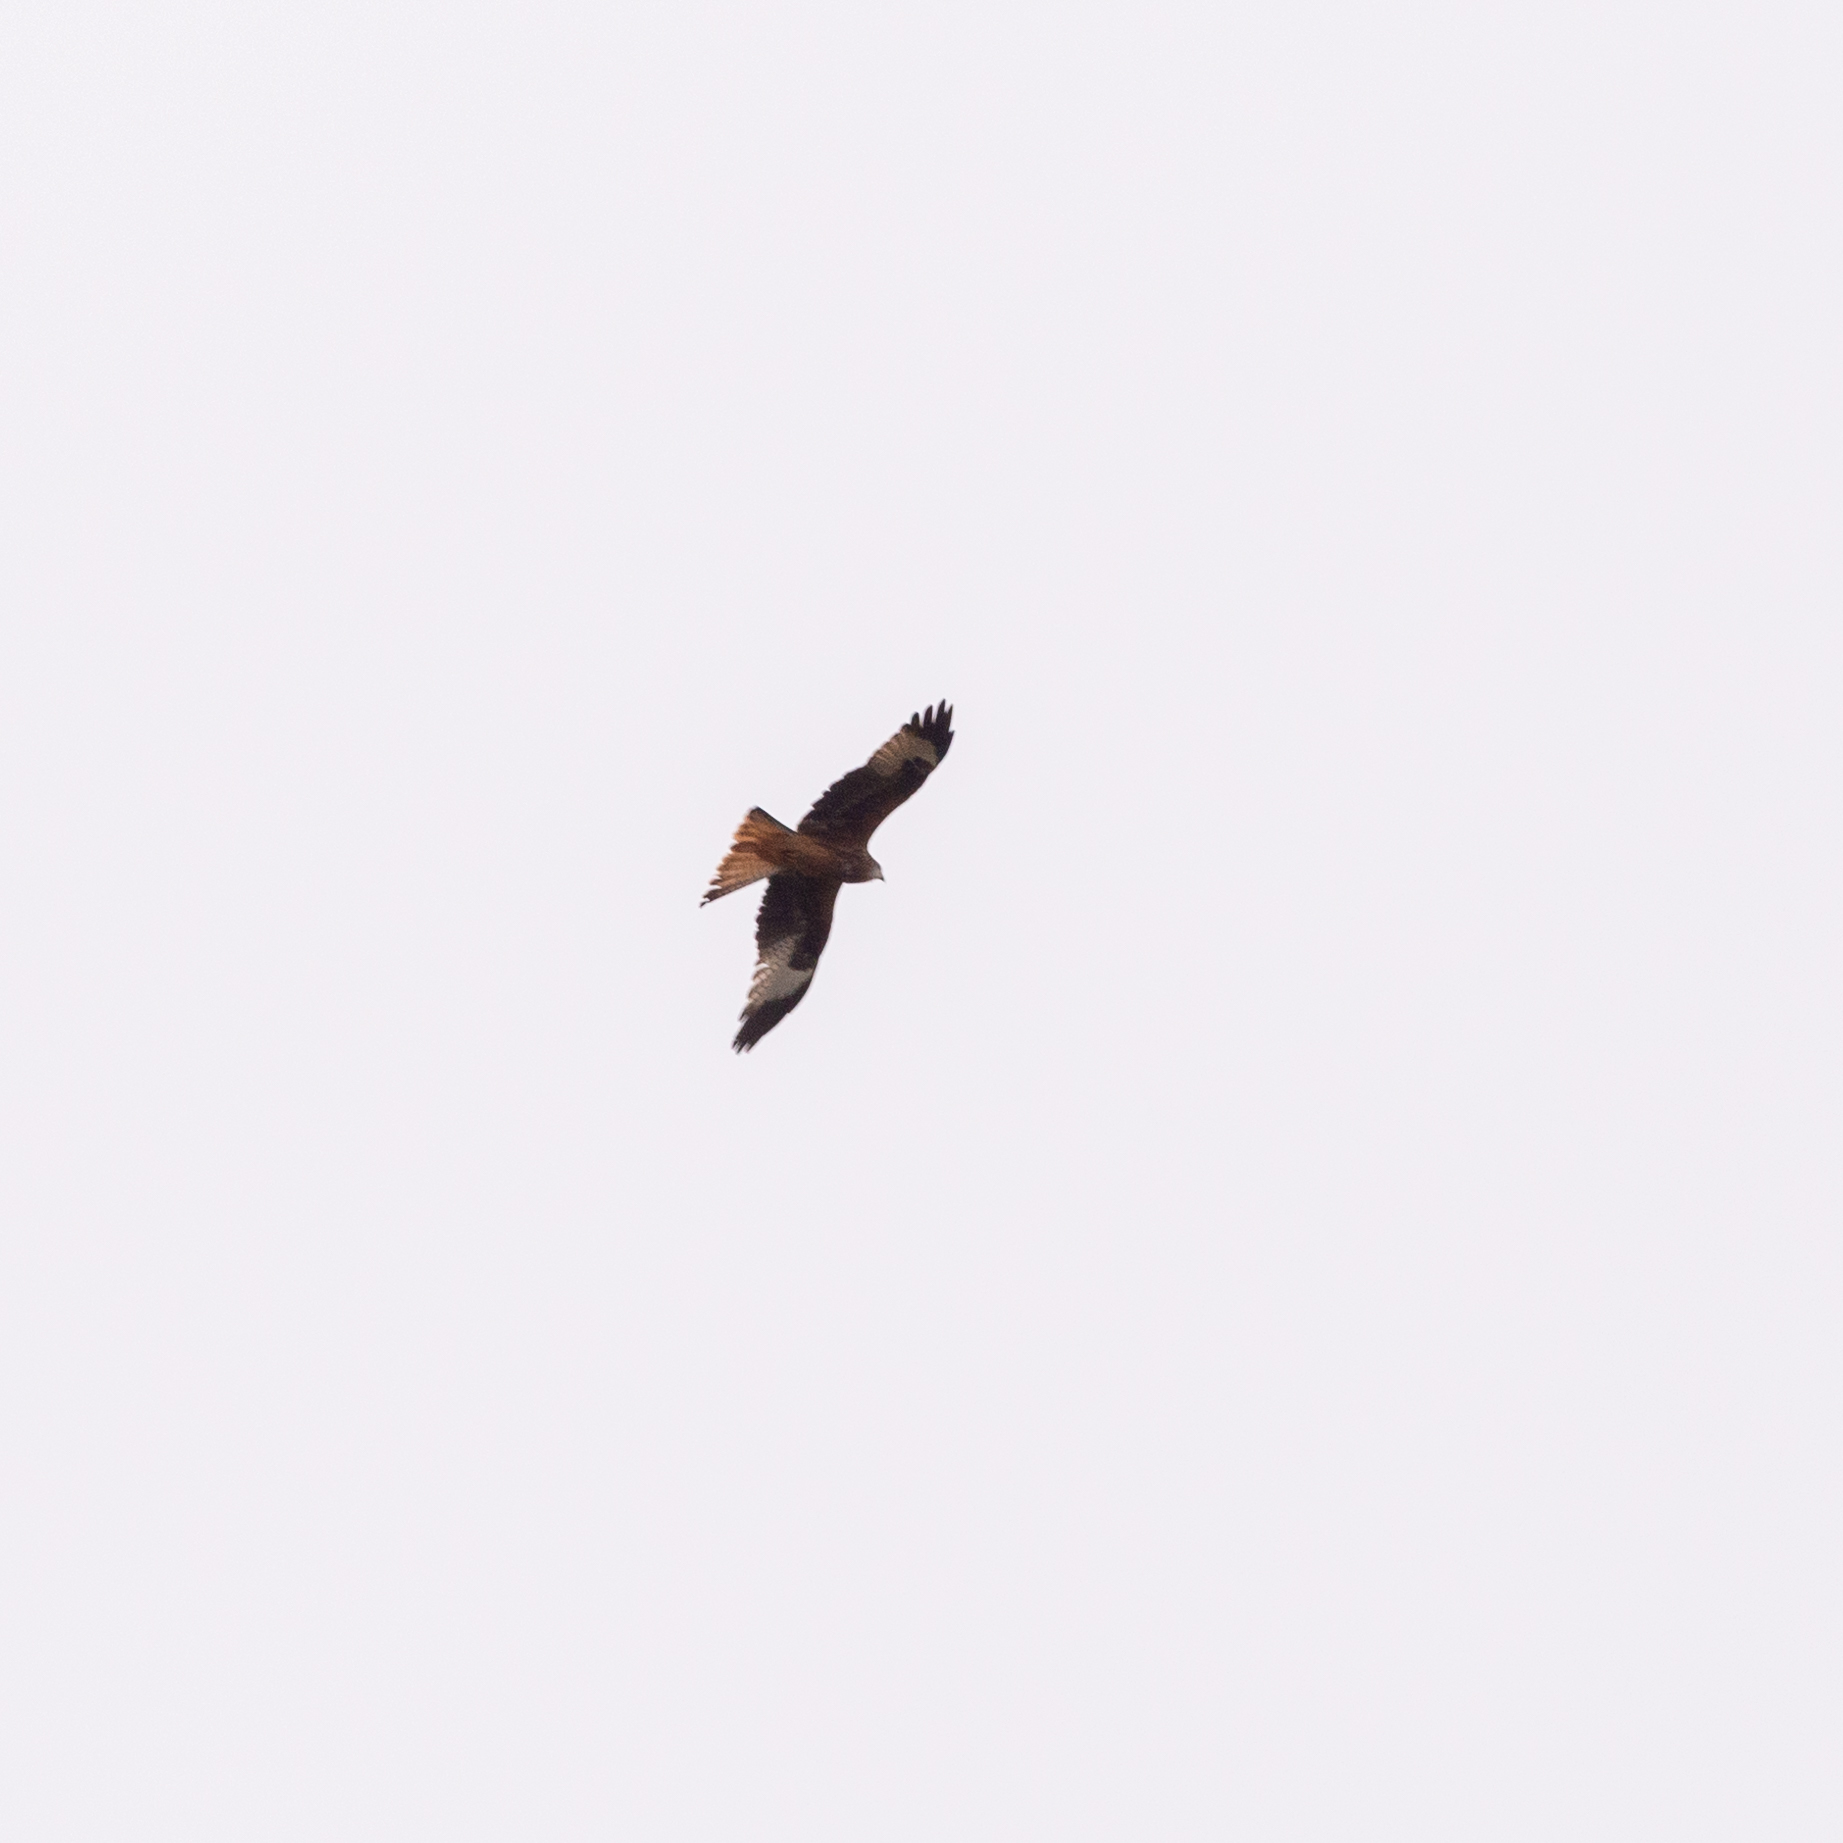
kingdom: Animalia
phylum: Chordata
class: Aves
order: Accipitriformes
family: Accipitridae
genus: Milvus
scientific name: Milvus milvus
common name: Red kite
